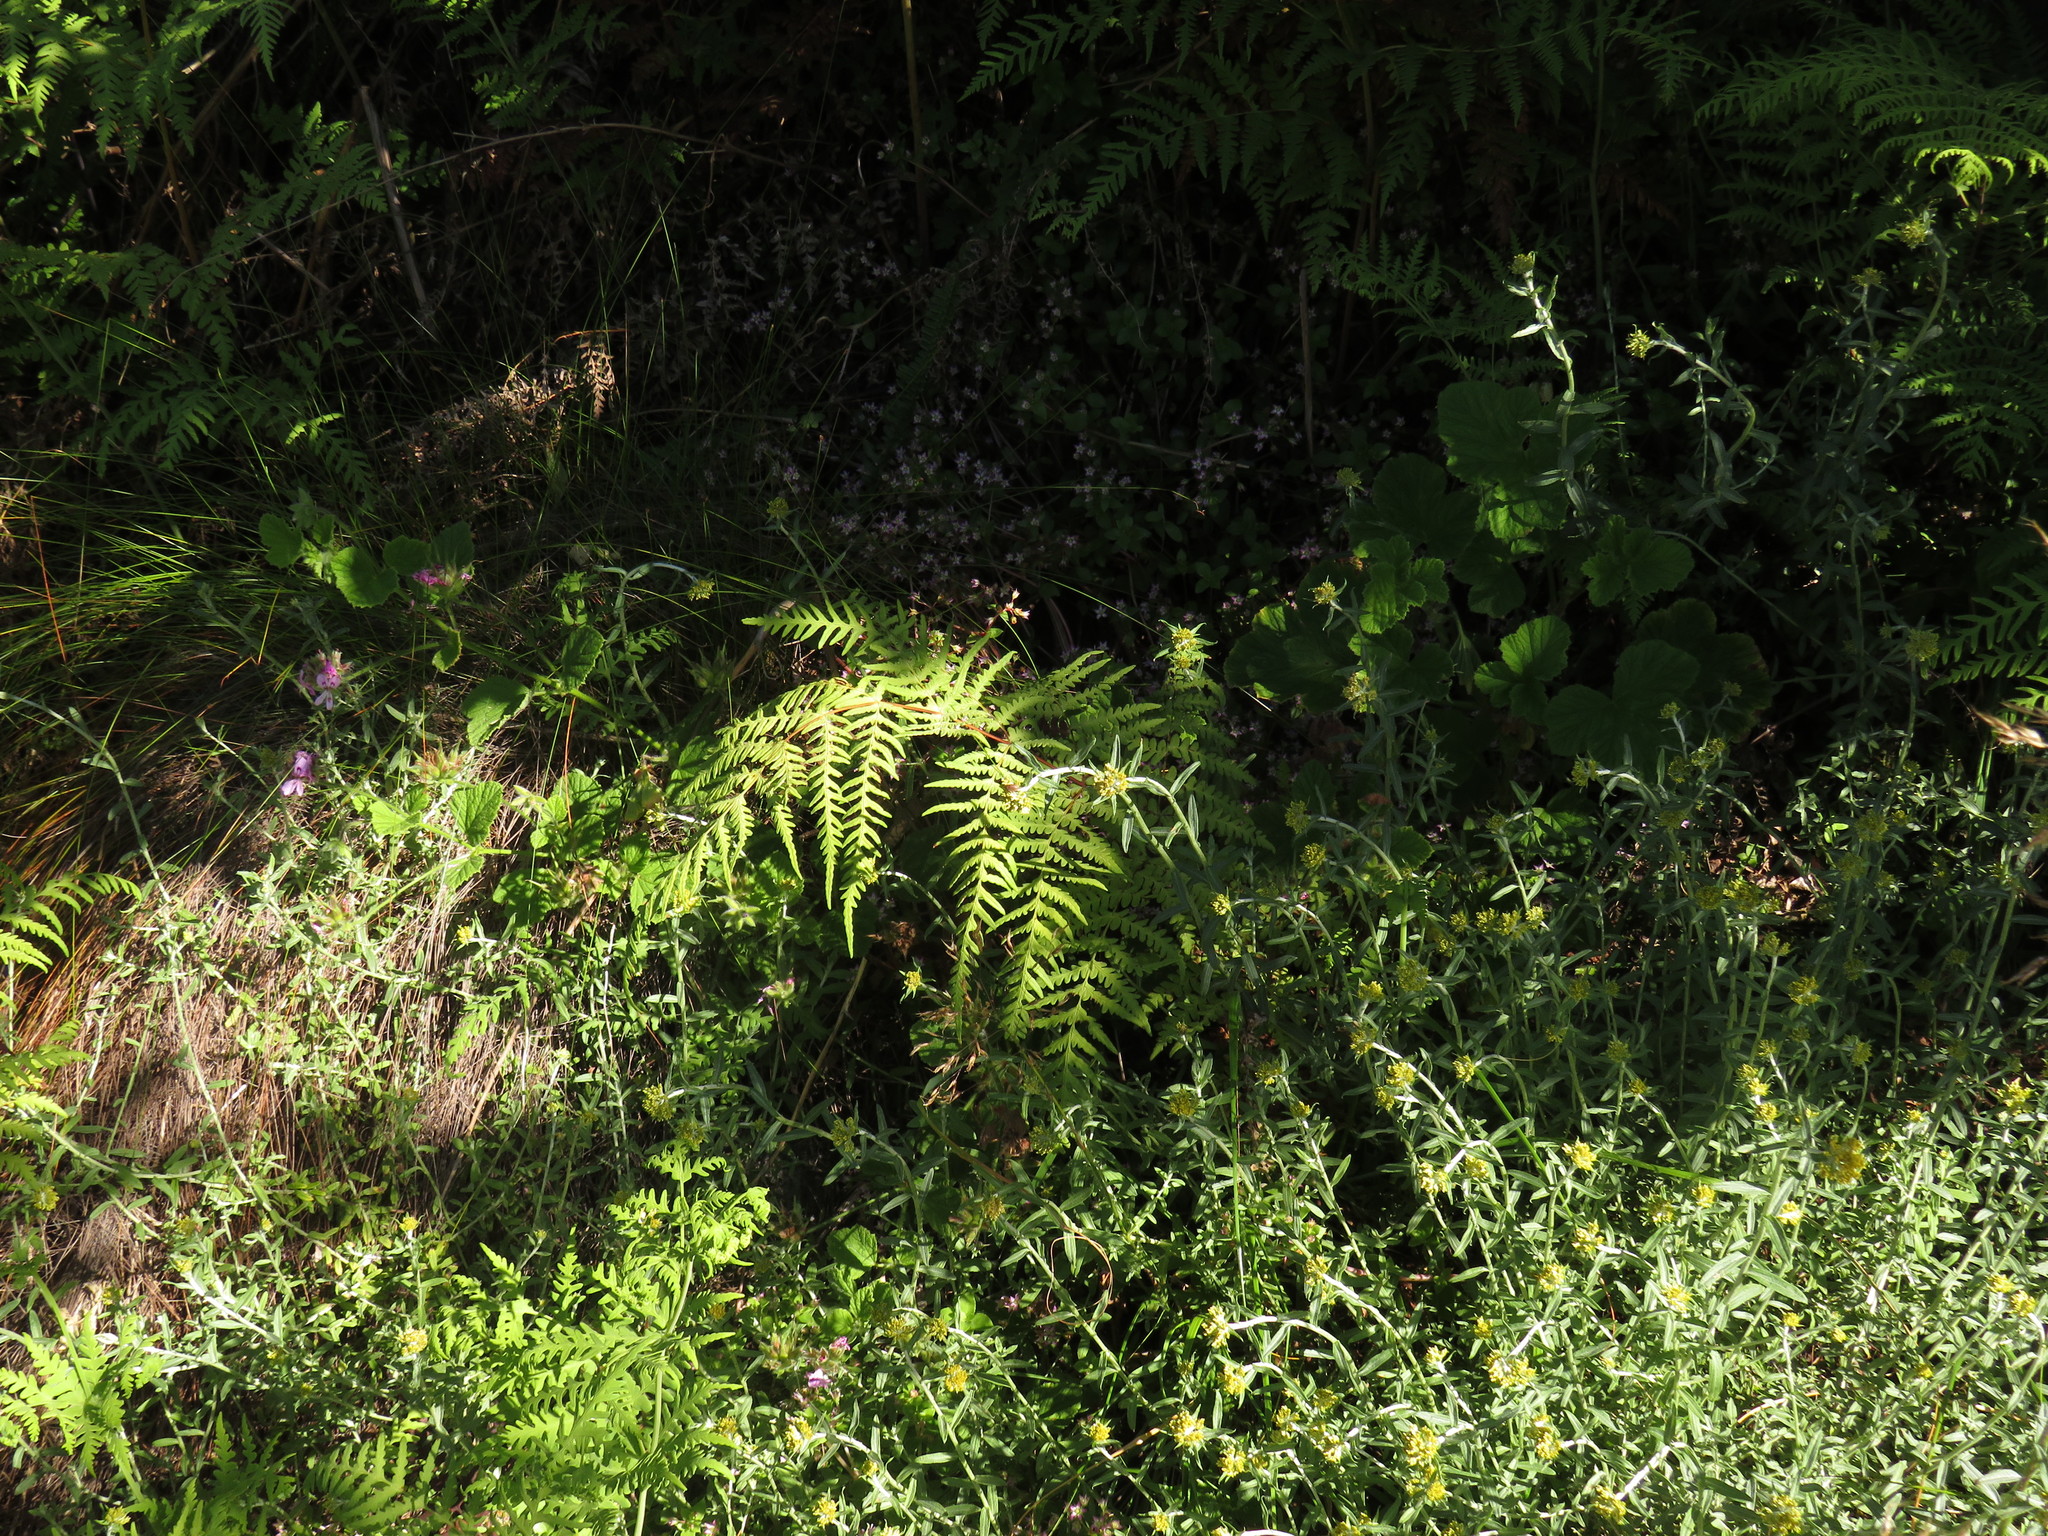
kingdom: Plantae
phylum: Tracheophyta
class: Polypodiopsida
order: Polypodiales
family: Dennstaedtiaceae
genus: Histiopteris
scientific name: Histiopteris incisa
